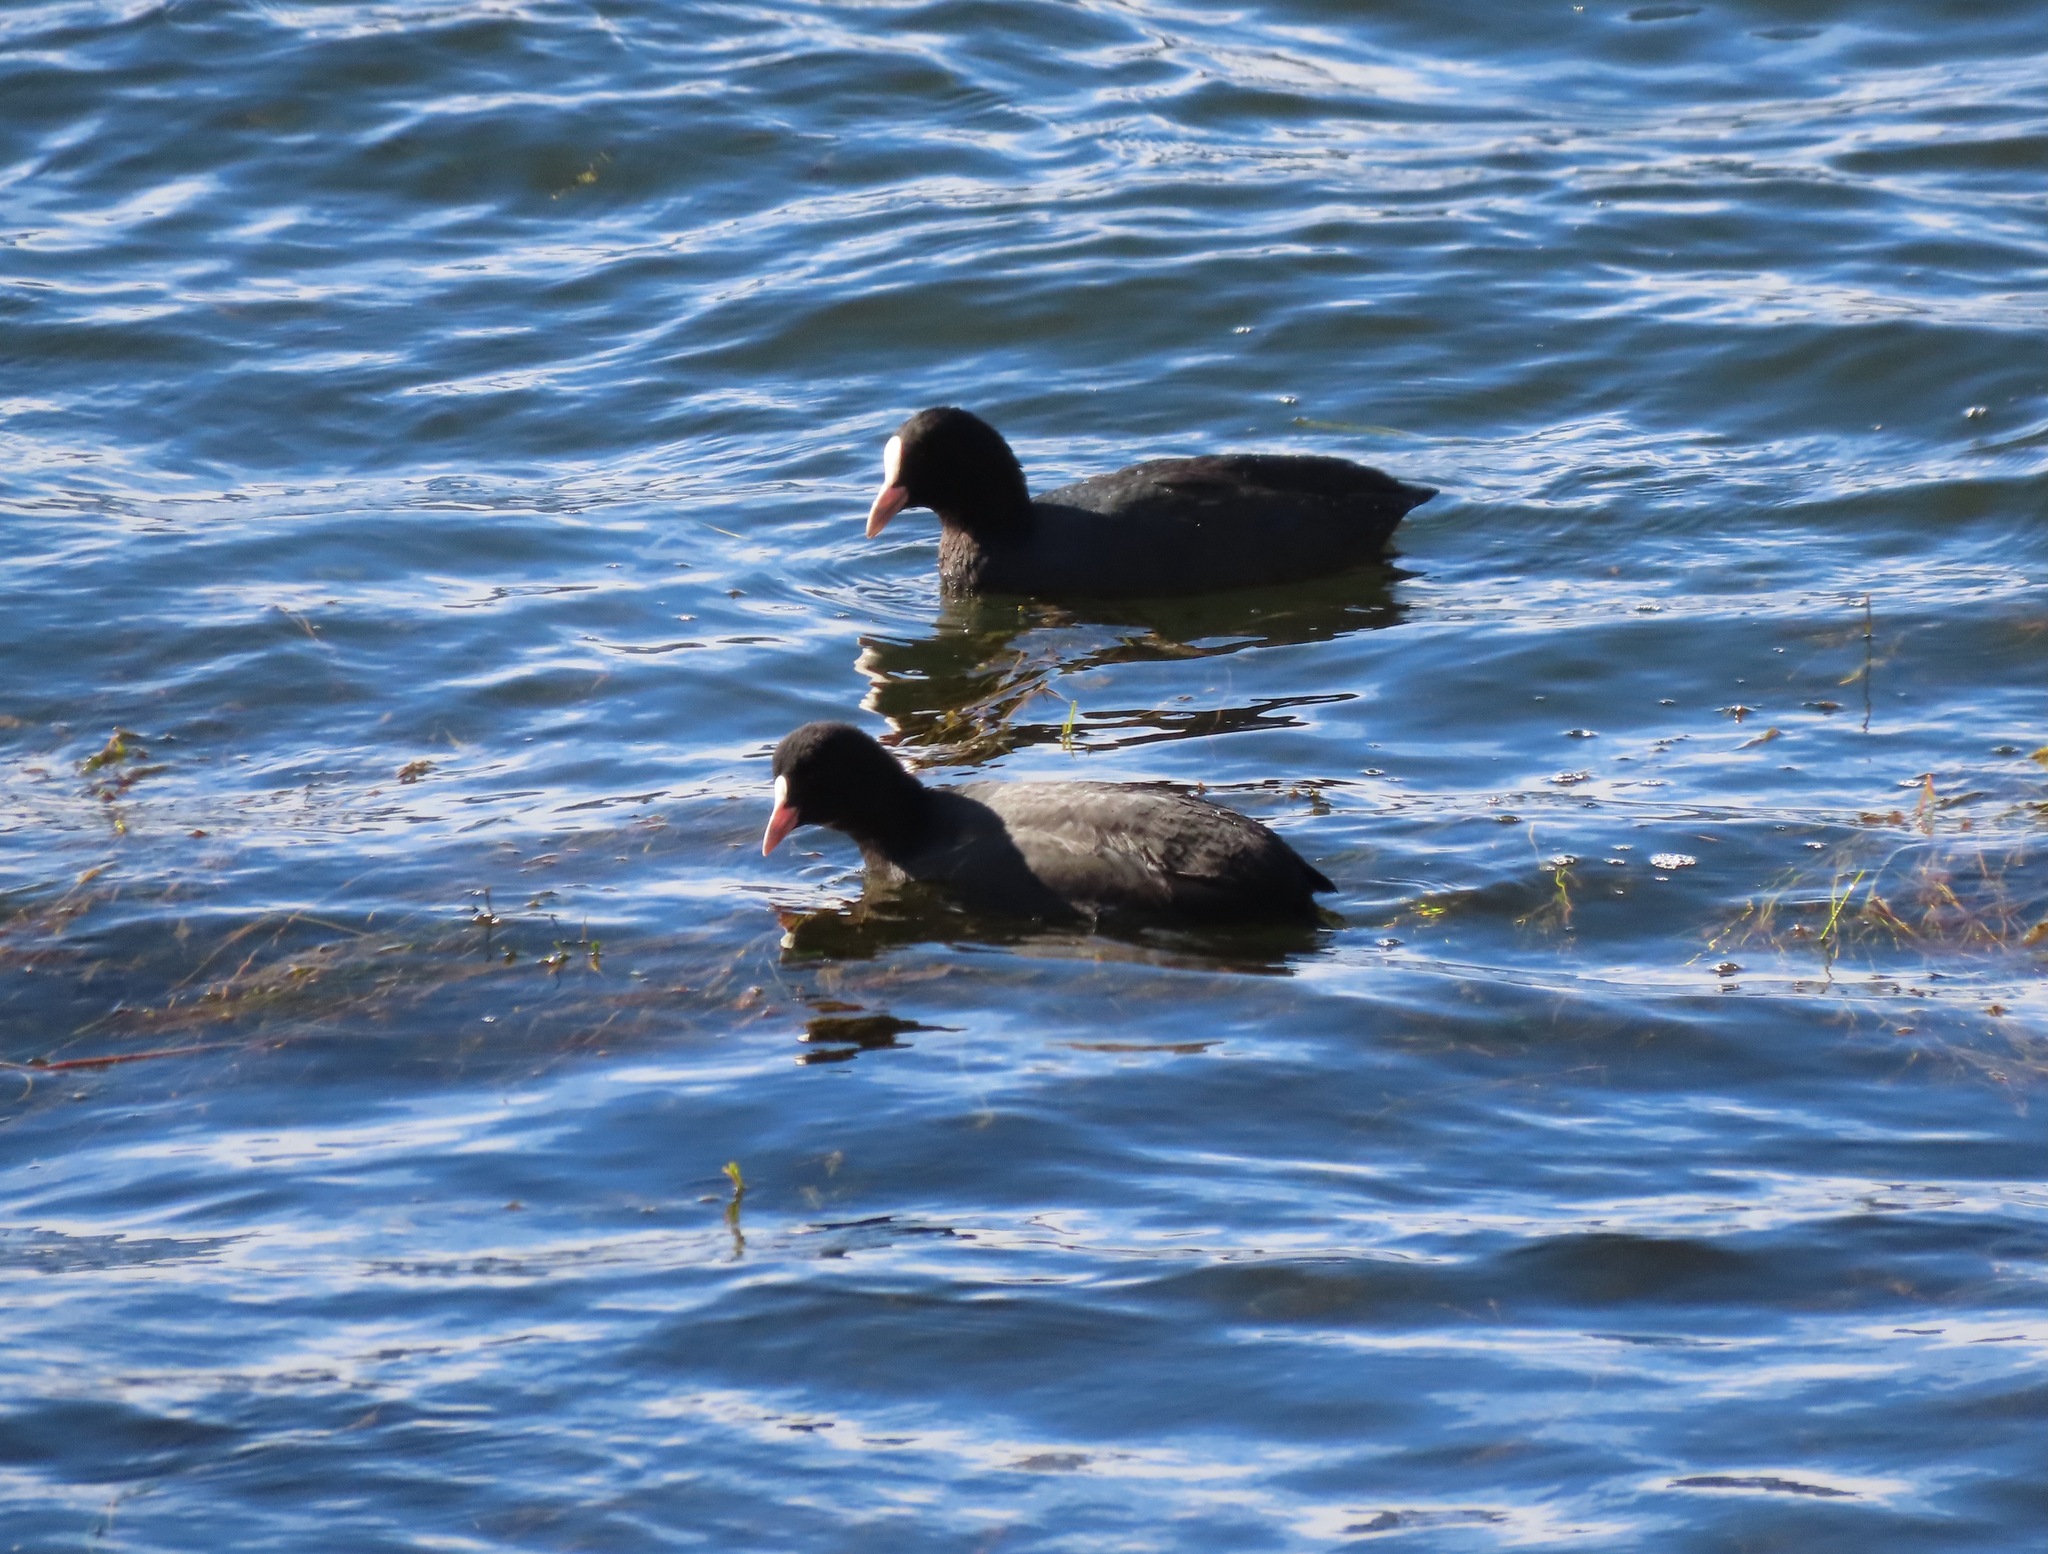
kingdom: Animalia
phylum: Chordata
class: Aves
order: Gruiformes
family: Rallidae
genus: Fulica
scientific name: Fulica atra
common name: Eurasian coot
